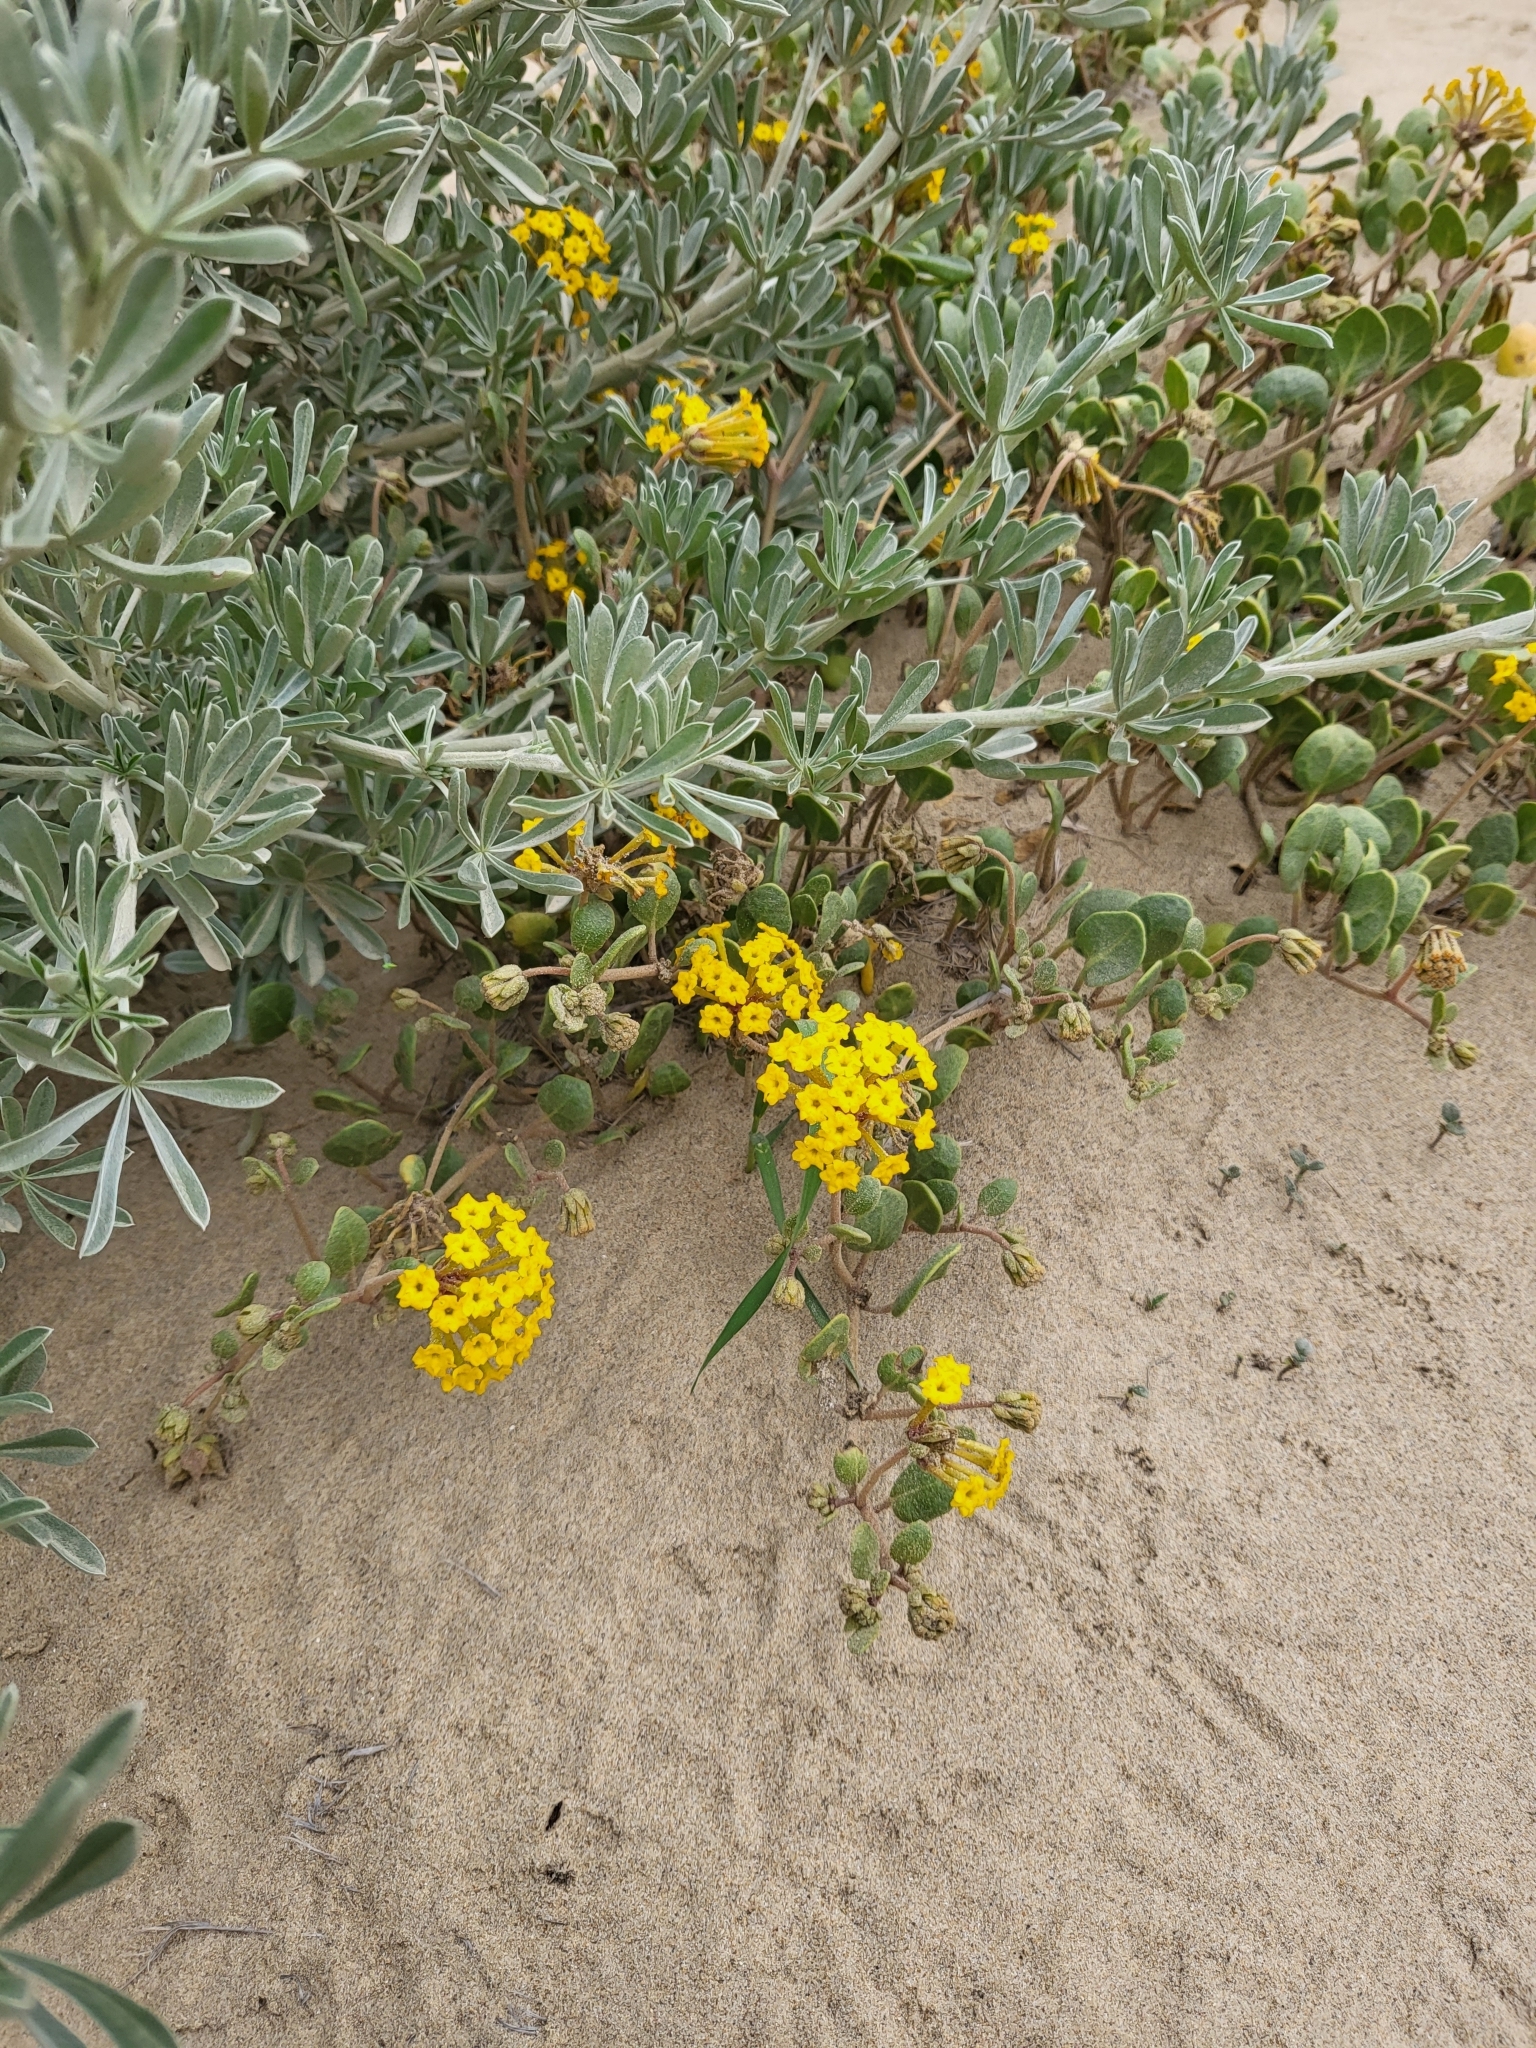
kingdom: Plantae
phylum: Tracheophyta
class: Magnoliopsida
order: Caryophyllales
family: Nyctaginaceae
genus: Abronia
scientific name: Abronia latifolia
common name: Yellow sand-verbena
